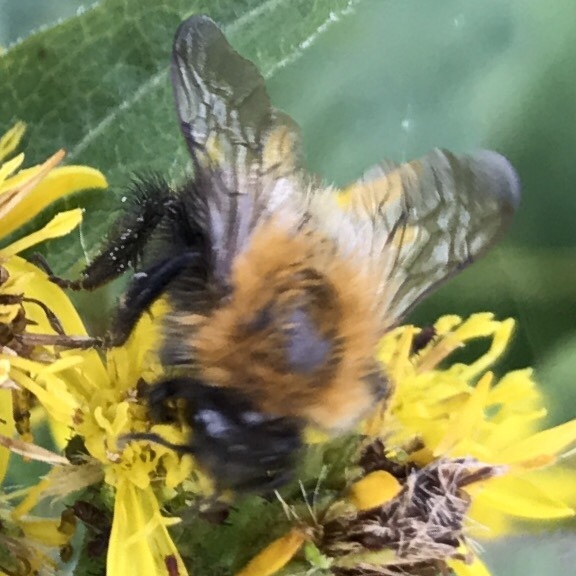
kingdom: Animalia
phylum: Arthropoda
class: Insecta
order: Hymenoptera
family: Apidae
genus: Bombus
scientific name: Bombus
